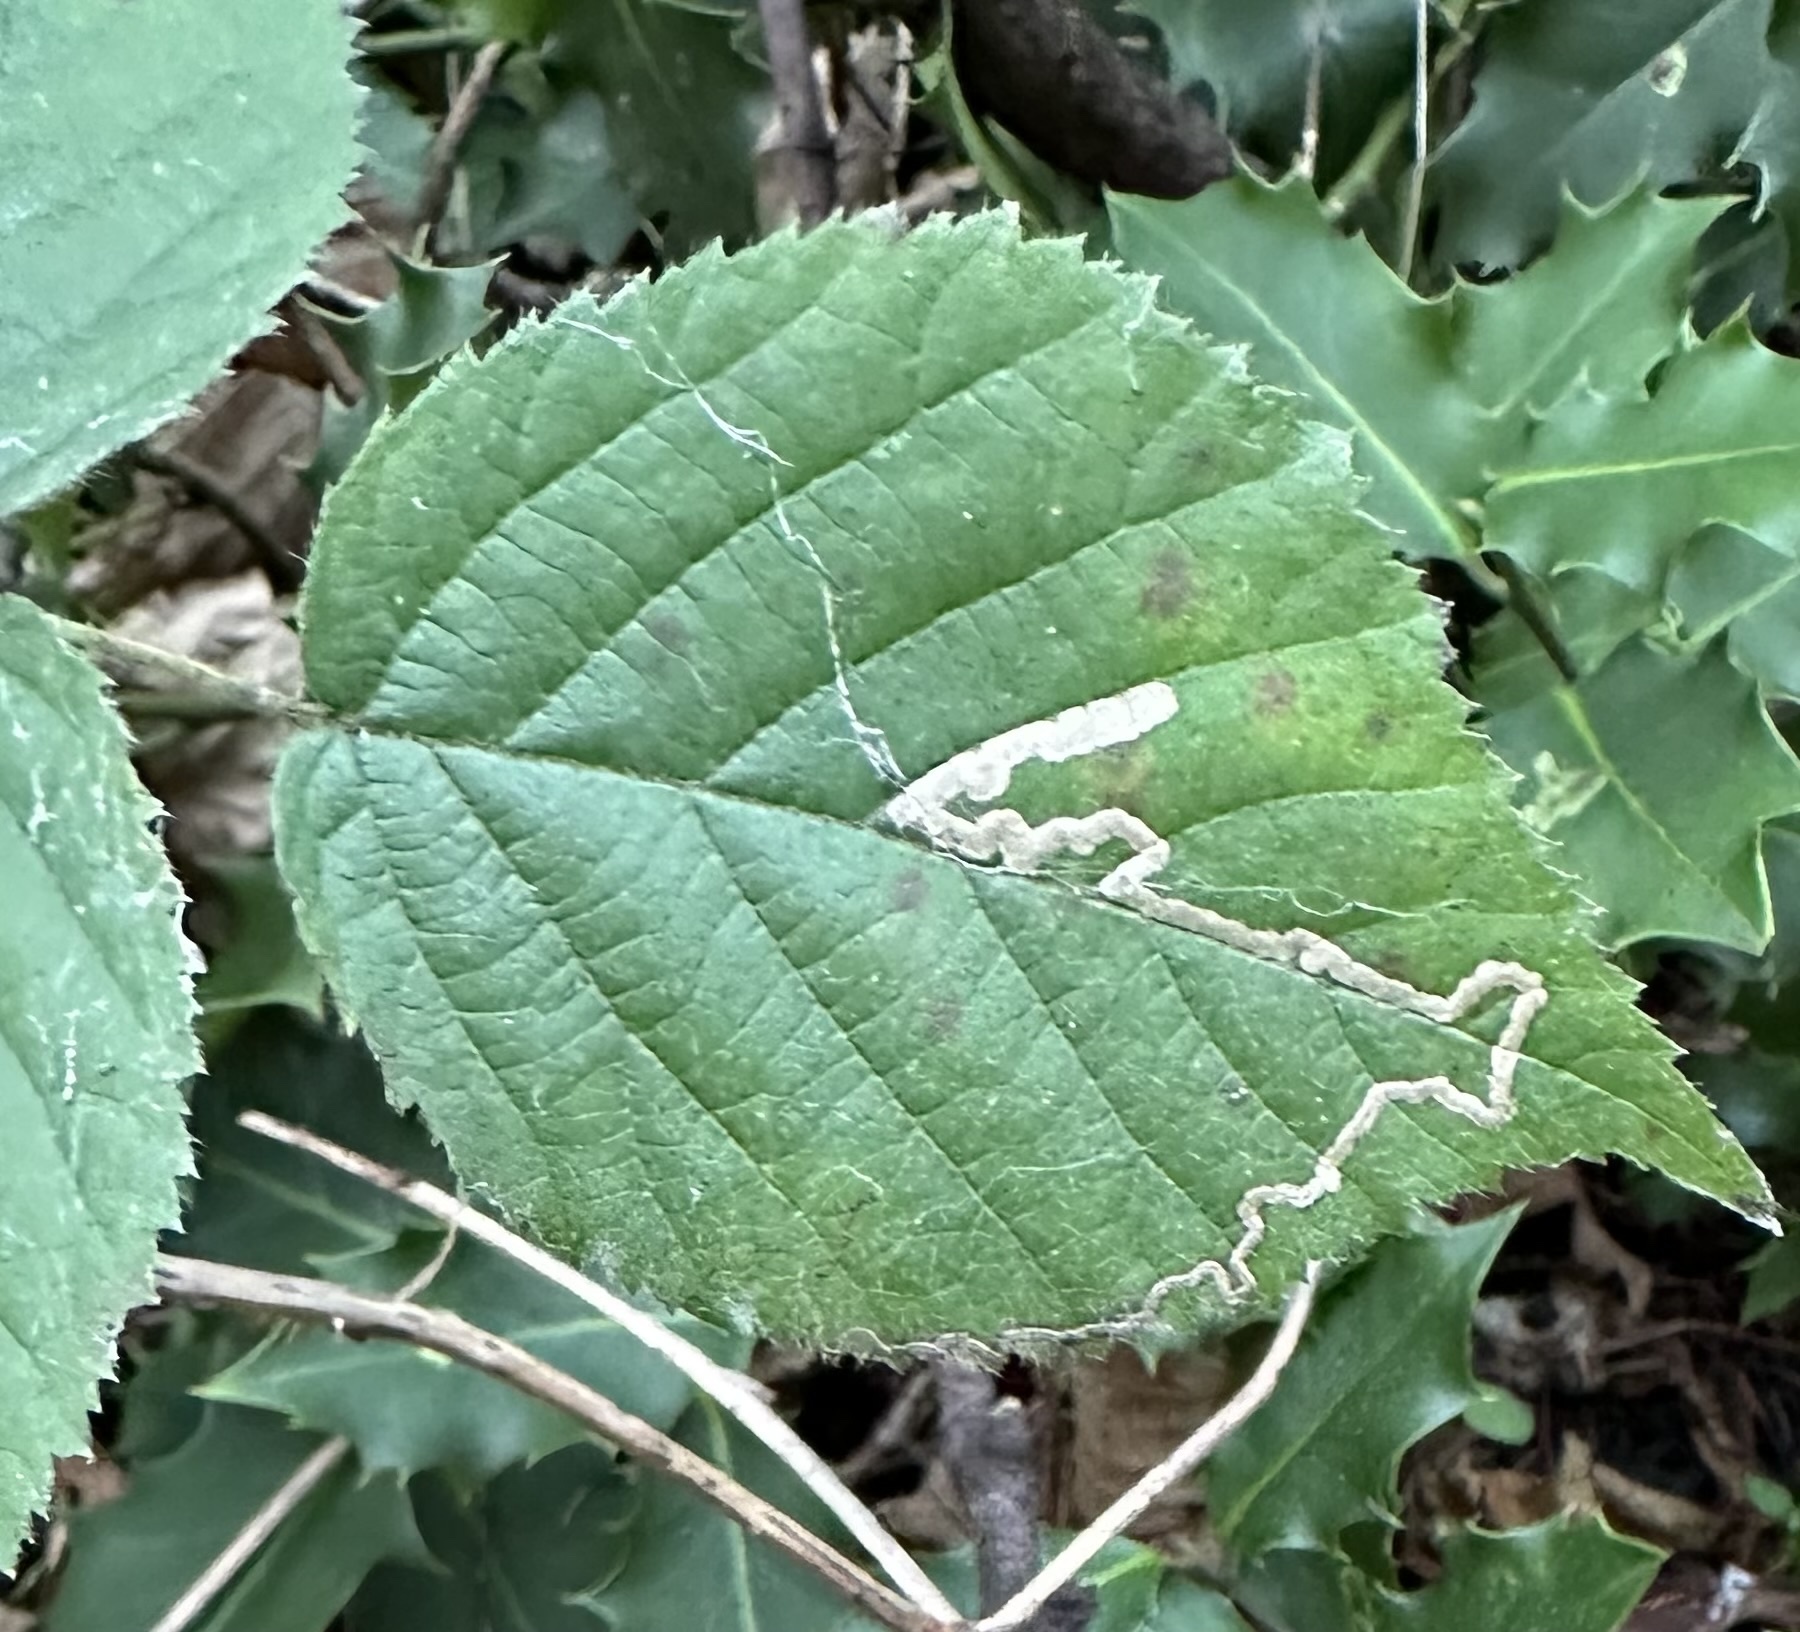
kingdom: Animalia
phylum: Arthropoda
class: Insecta
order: Lepidoptera
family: Nepticulidae
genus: Stigmella
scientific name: Stigmella aurella
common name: Golden pigmy
